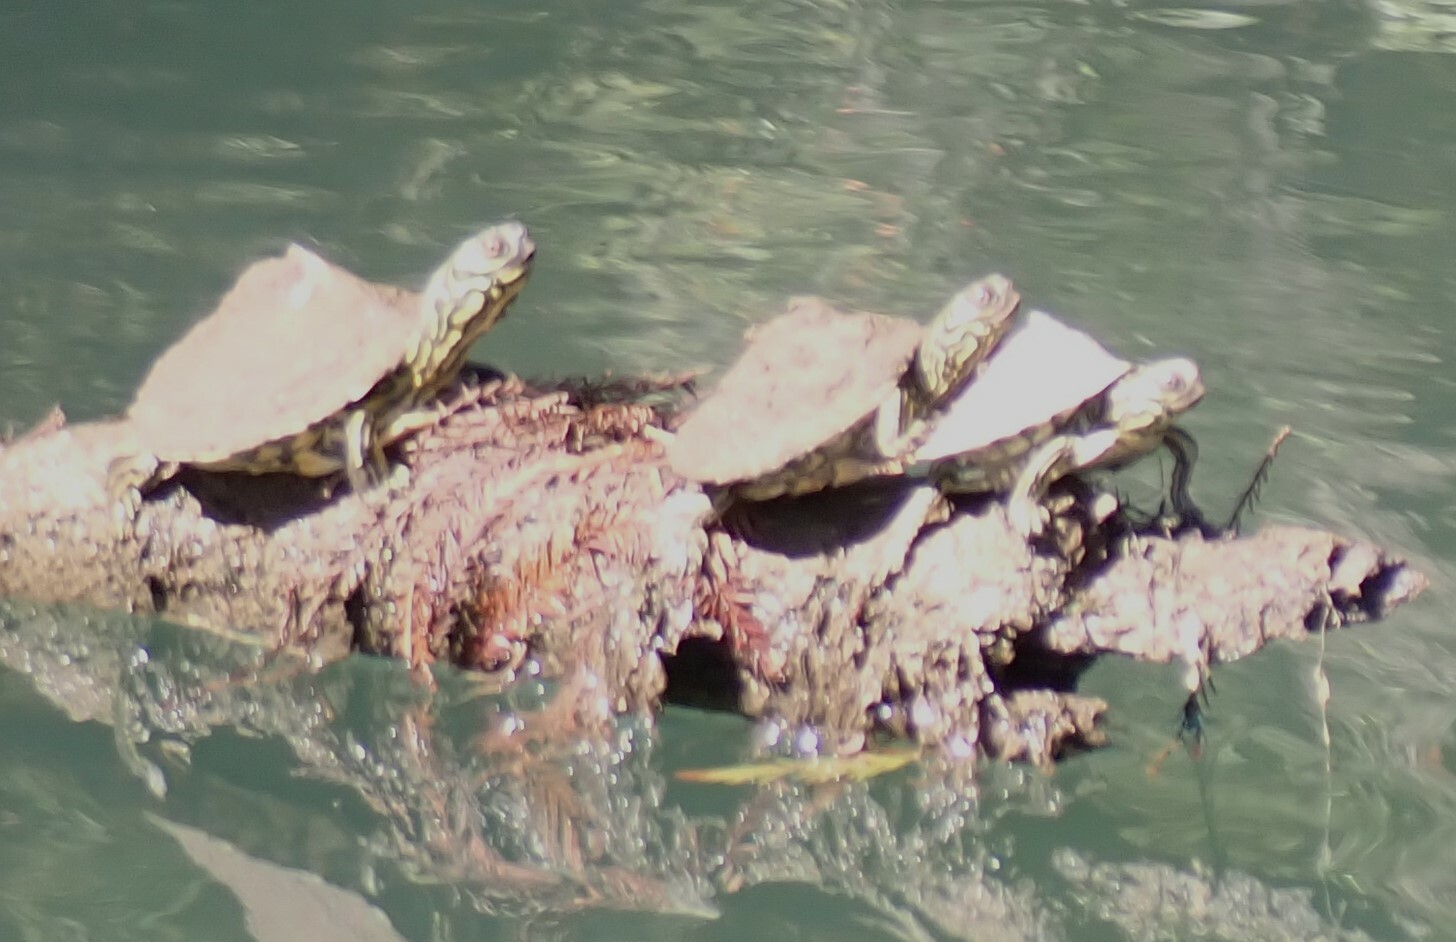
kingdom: Animalia
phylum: Chordata
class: Testudines
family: Emydidae
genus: Graptemys
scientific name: Graptemys barbouri
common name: Barbour's map turtle
